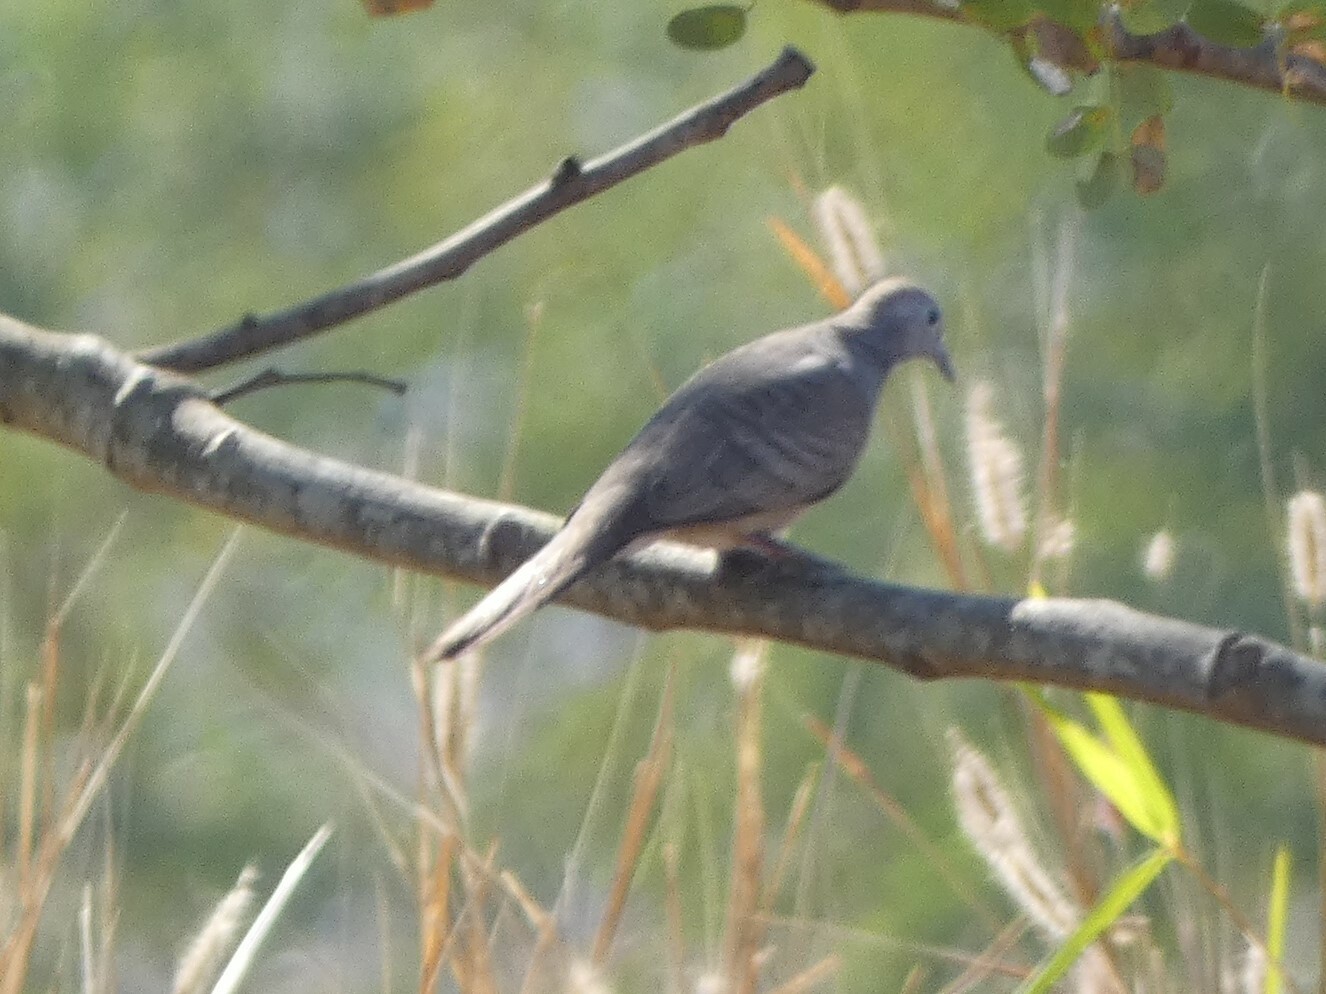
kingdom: Animalia
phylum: Chordata
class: Aves
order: Columbiformes
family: Columbidae
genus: Geopelia
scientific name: Geopelia striata
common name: Zebra dove
